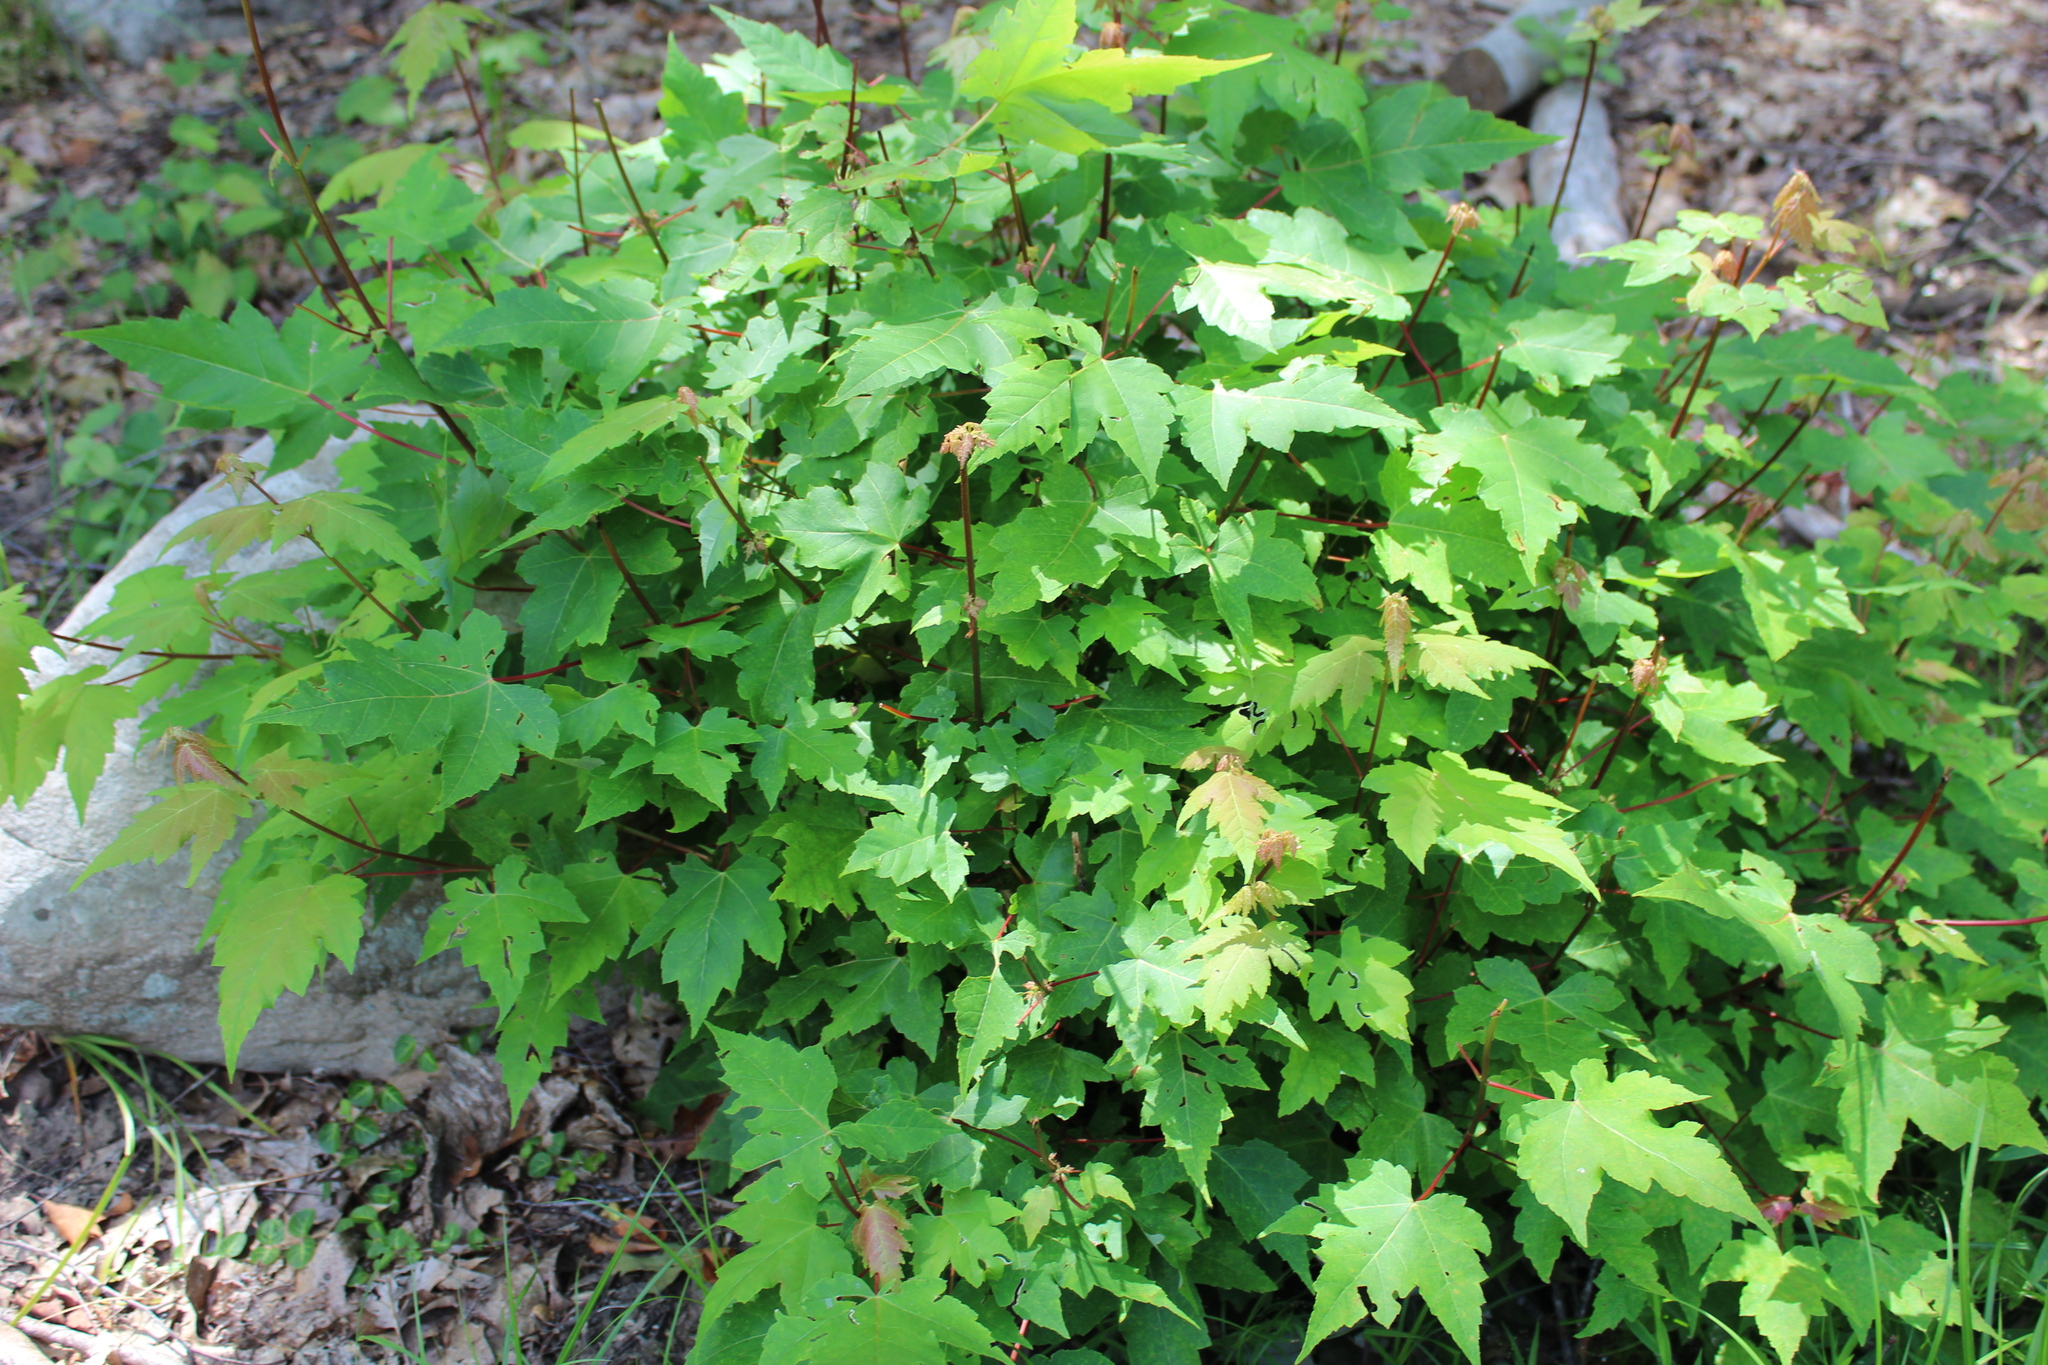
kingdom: Plantae
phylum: Tracheophyta
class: Magnoliopsida
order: Sapindales
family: Sapindaceae
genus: Acer
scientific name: Acer rubrum
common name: Red maple
